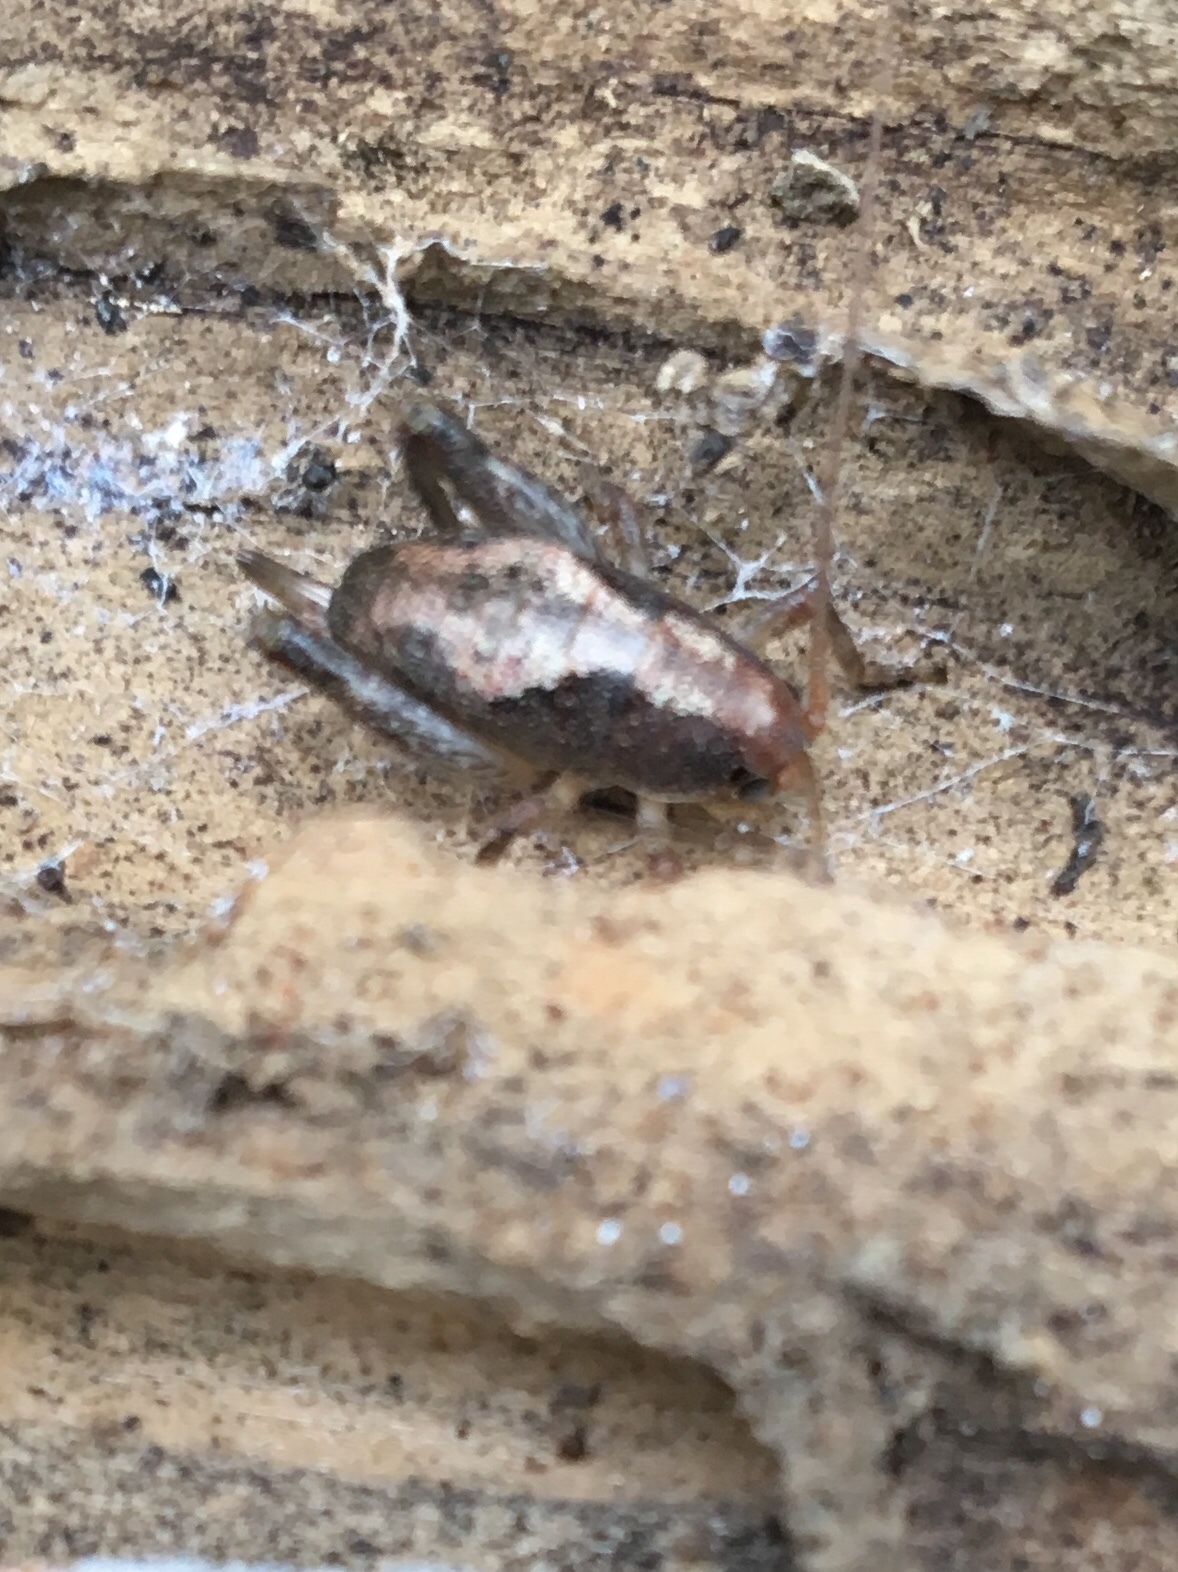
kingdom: Animalia
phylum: Arthropoda
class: Insecta
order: Orthoptera
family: Rhaphidophoridae
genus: Gammarotettix
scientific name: Gammarotettix genitalis
